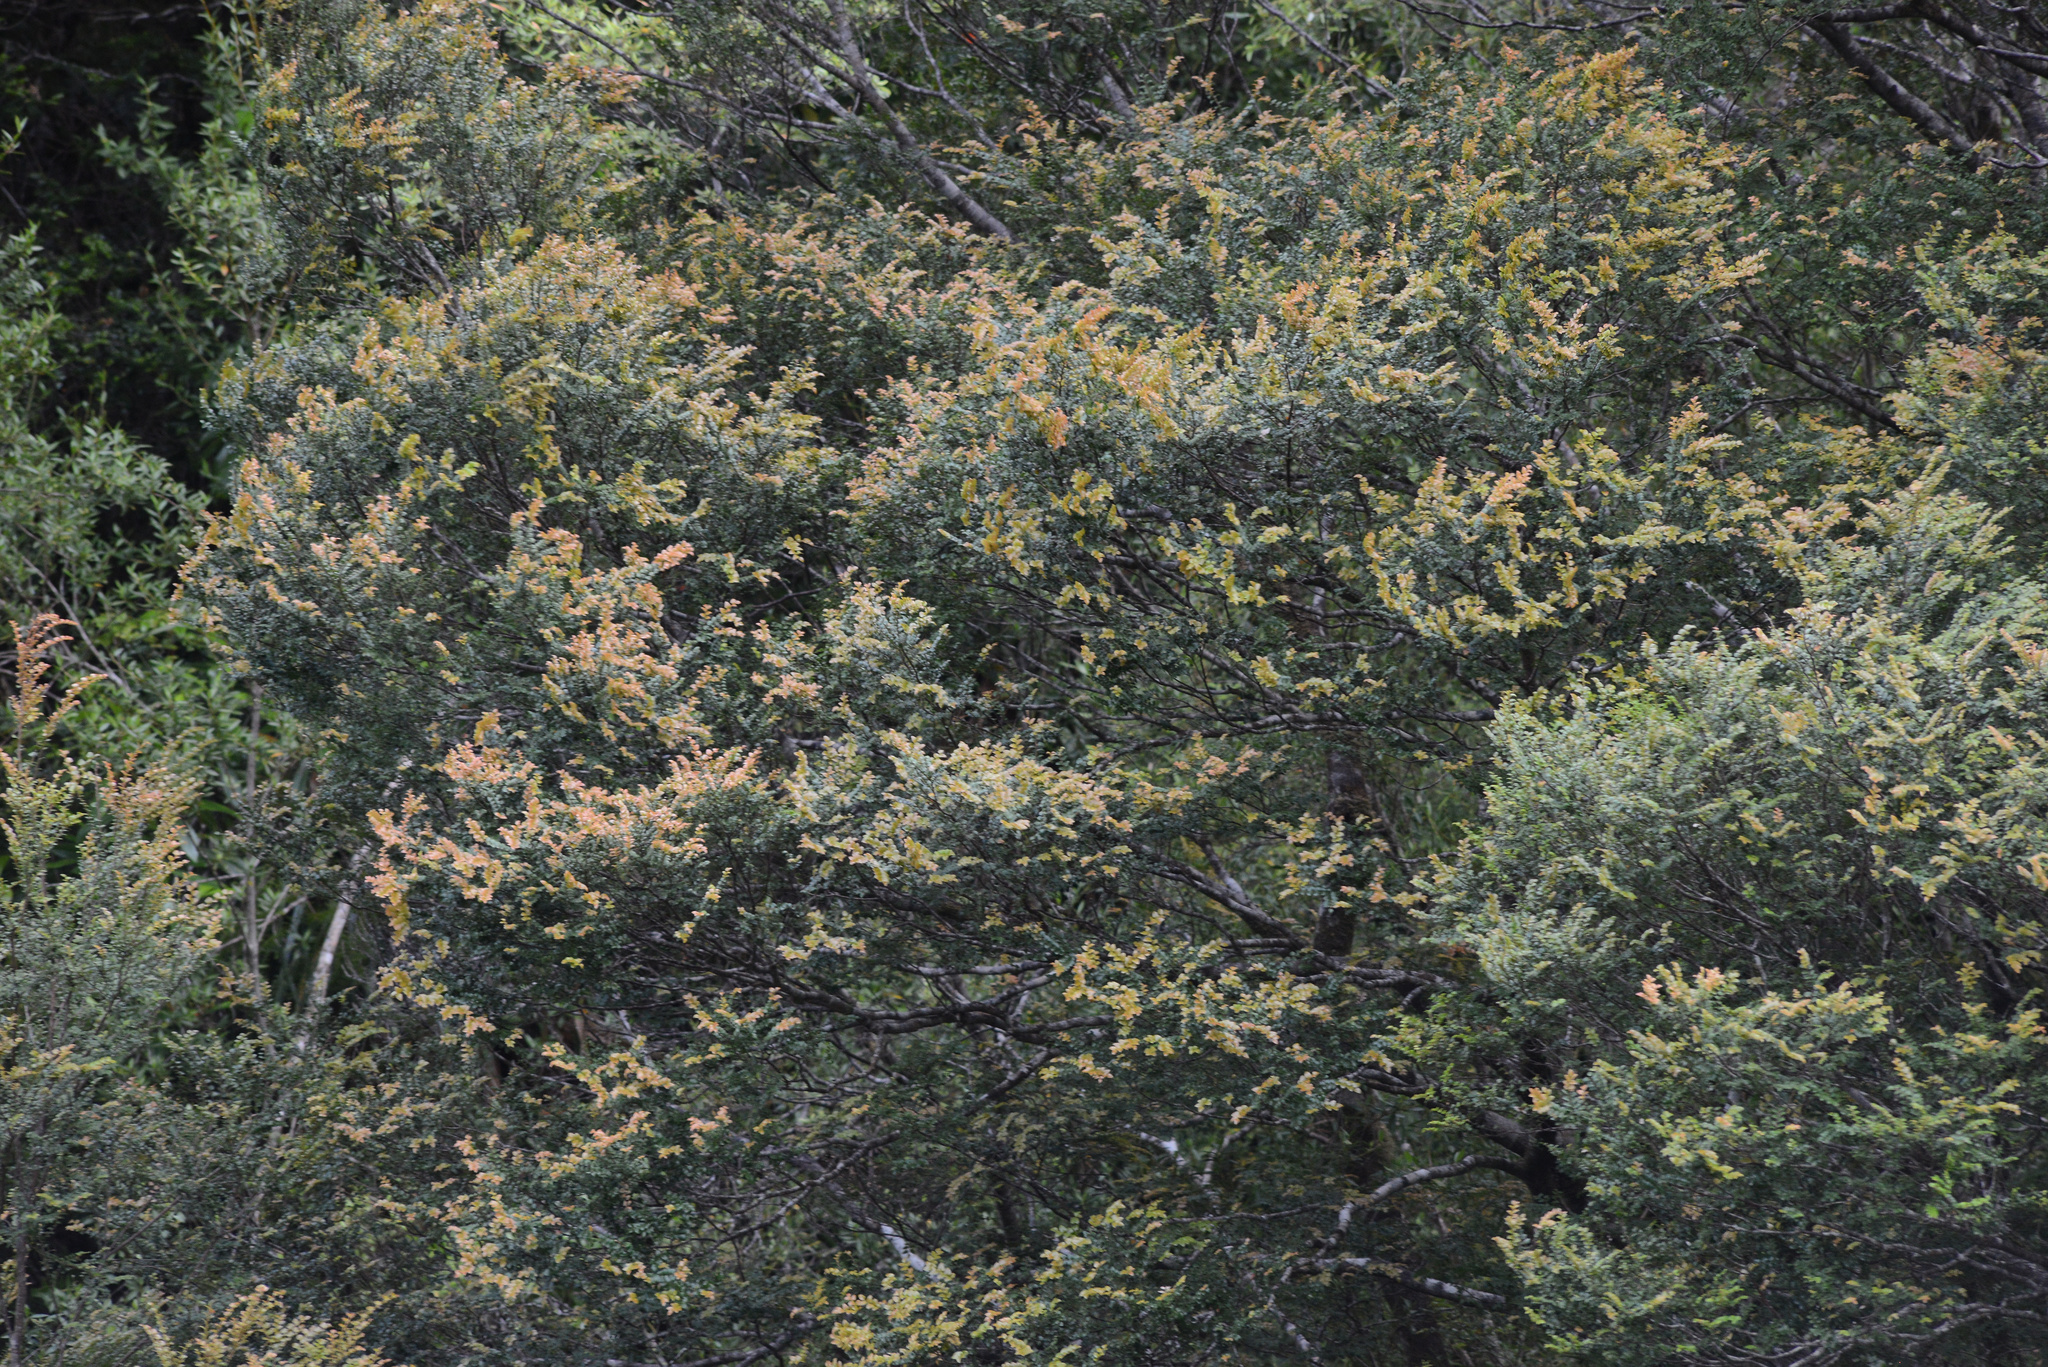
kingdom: Plantae
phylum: Tracheophyta
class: Magnoliopsida
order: Fagales
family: Nothofagaceae
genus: Nothofagus
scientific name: Nothofagus cunninghamii
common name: Myrtle beech
